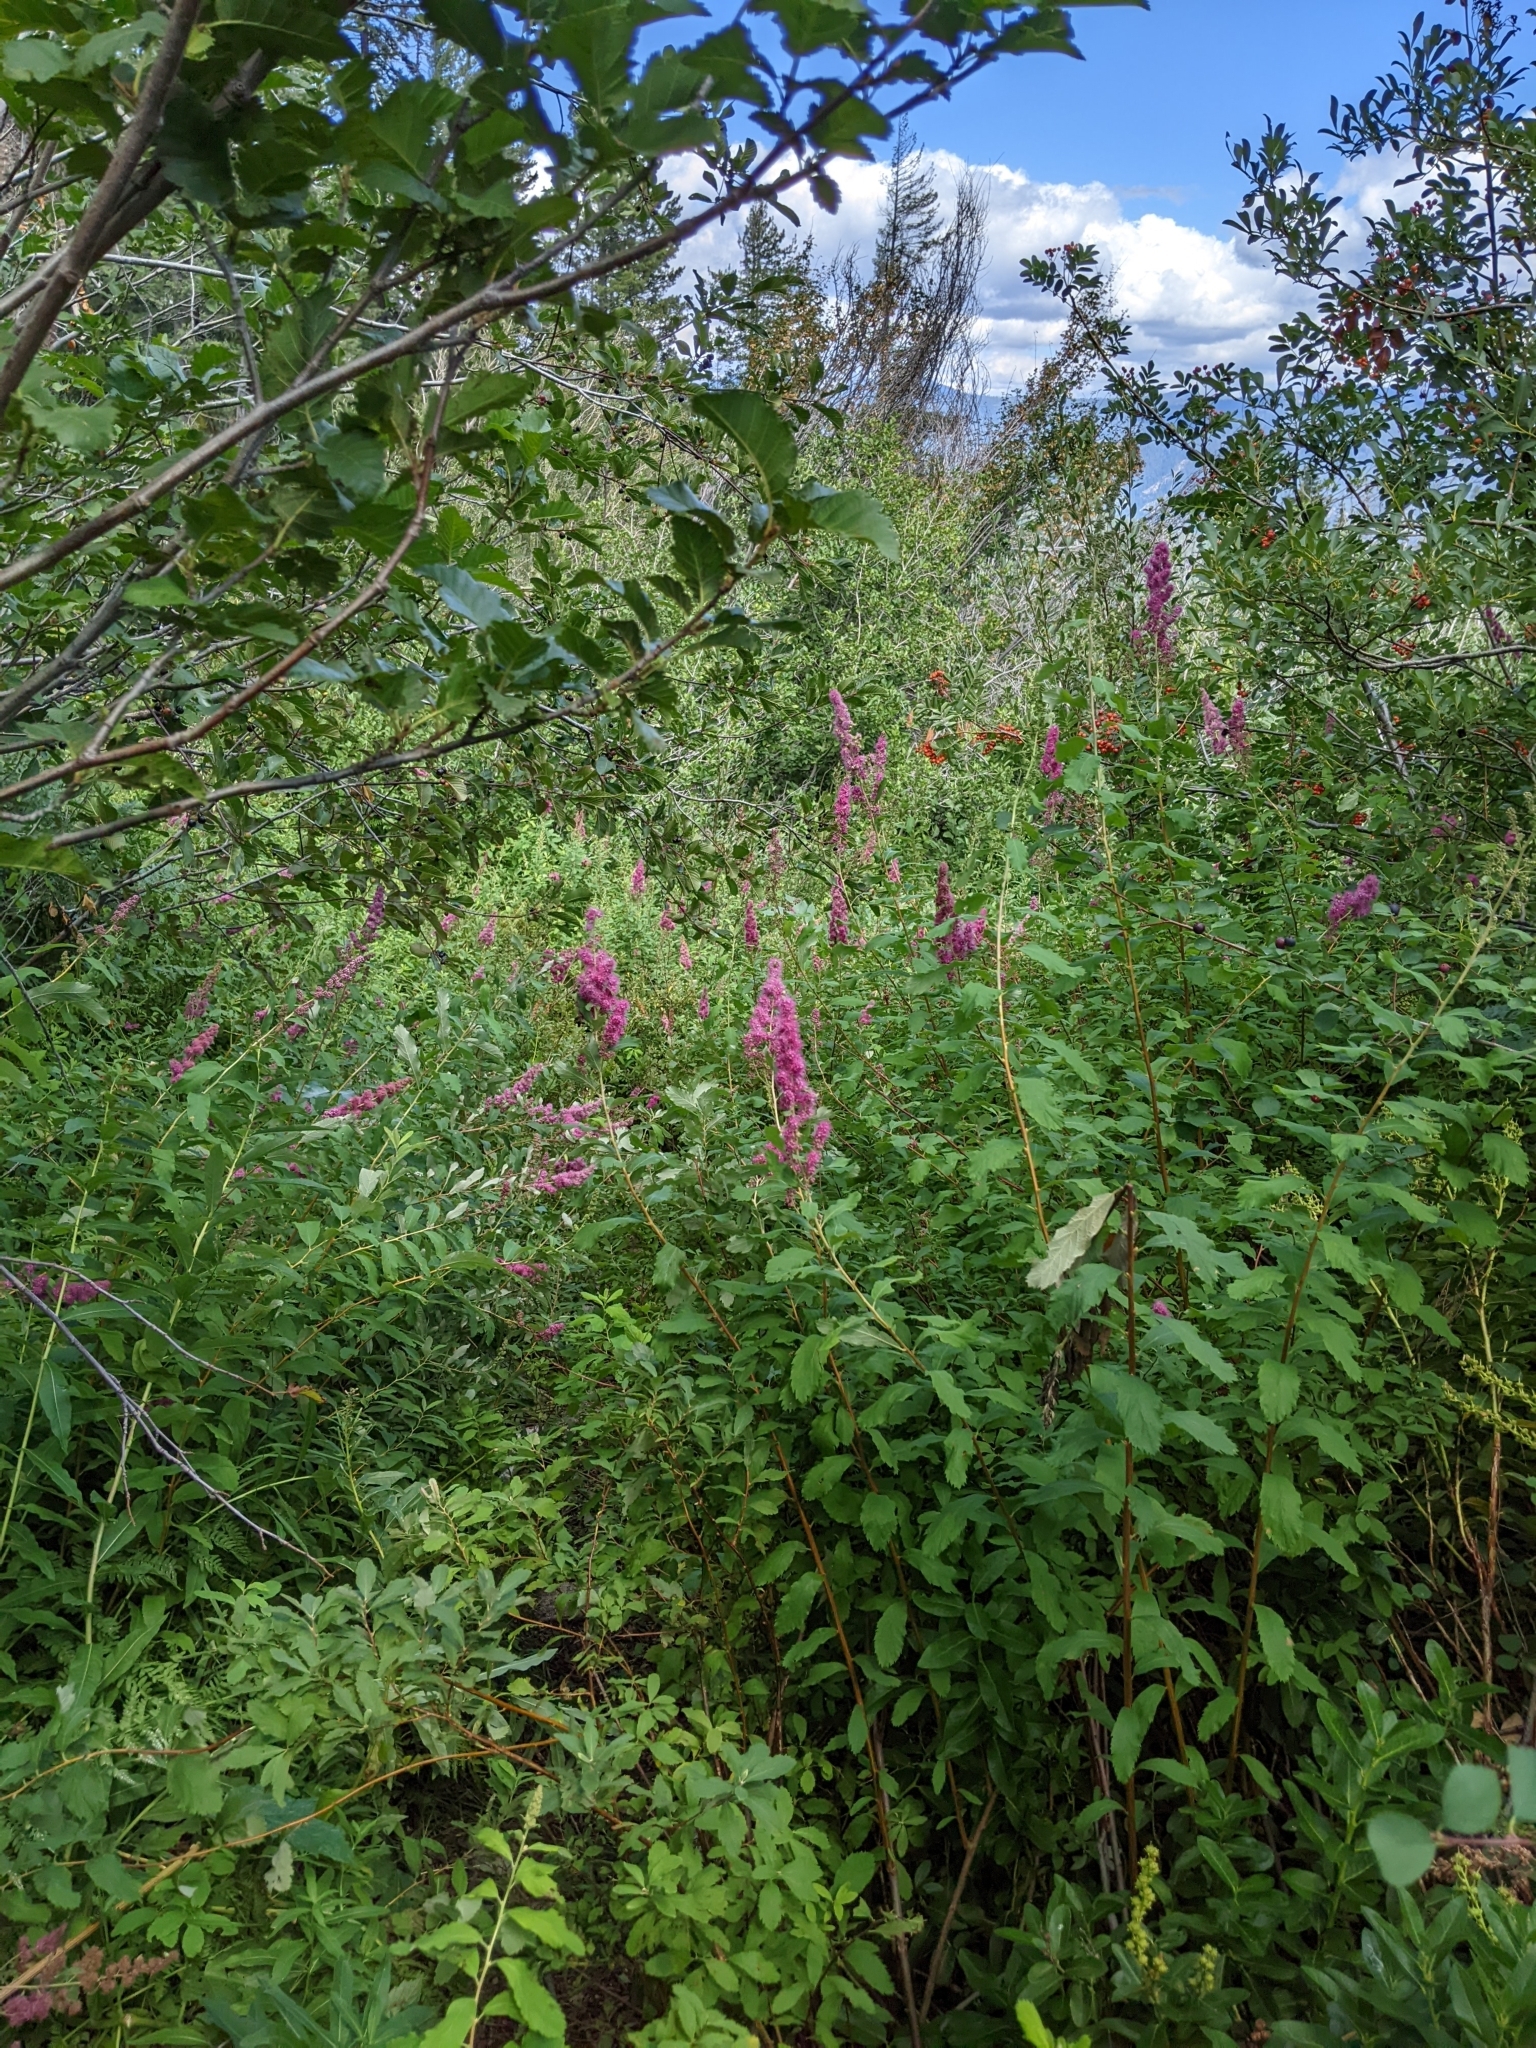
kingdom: Plantae
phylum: Tracheophyta
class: Magnoliopsida
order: Rosales
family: Rosaceae
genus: Spiraea
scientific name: Spiraea douglasii
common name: Steeplebush
